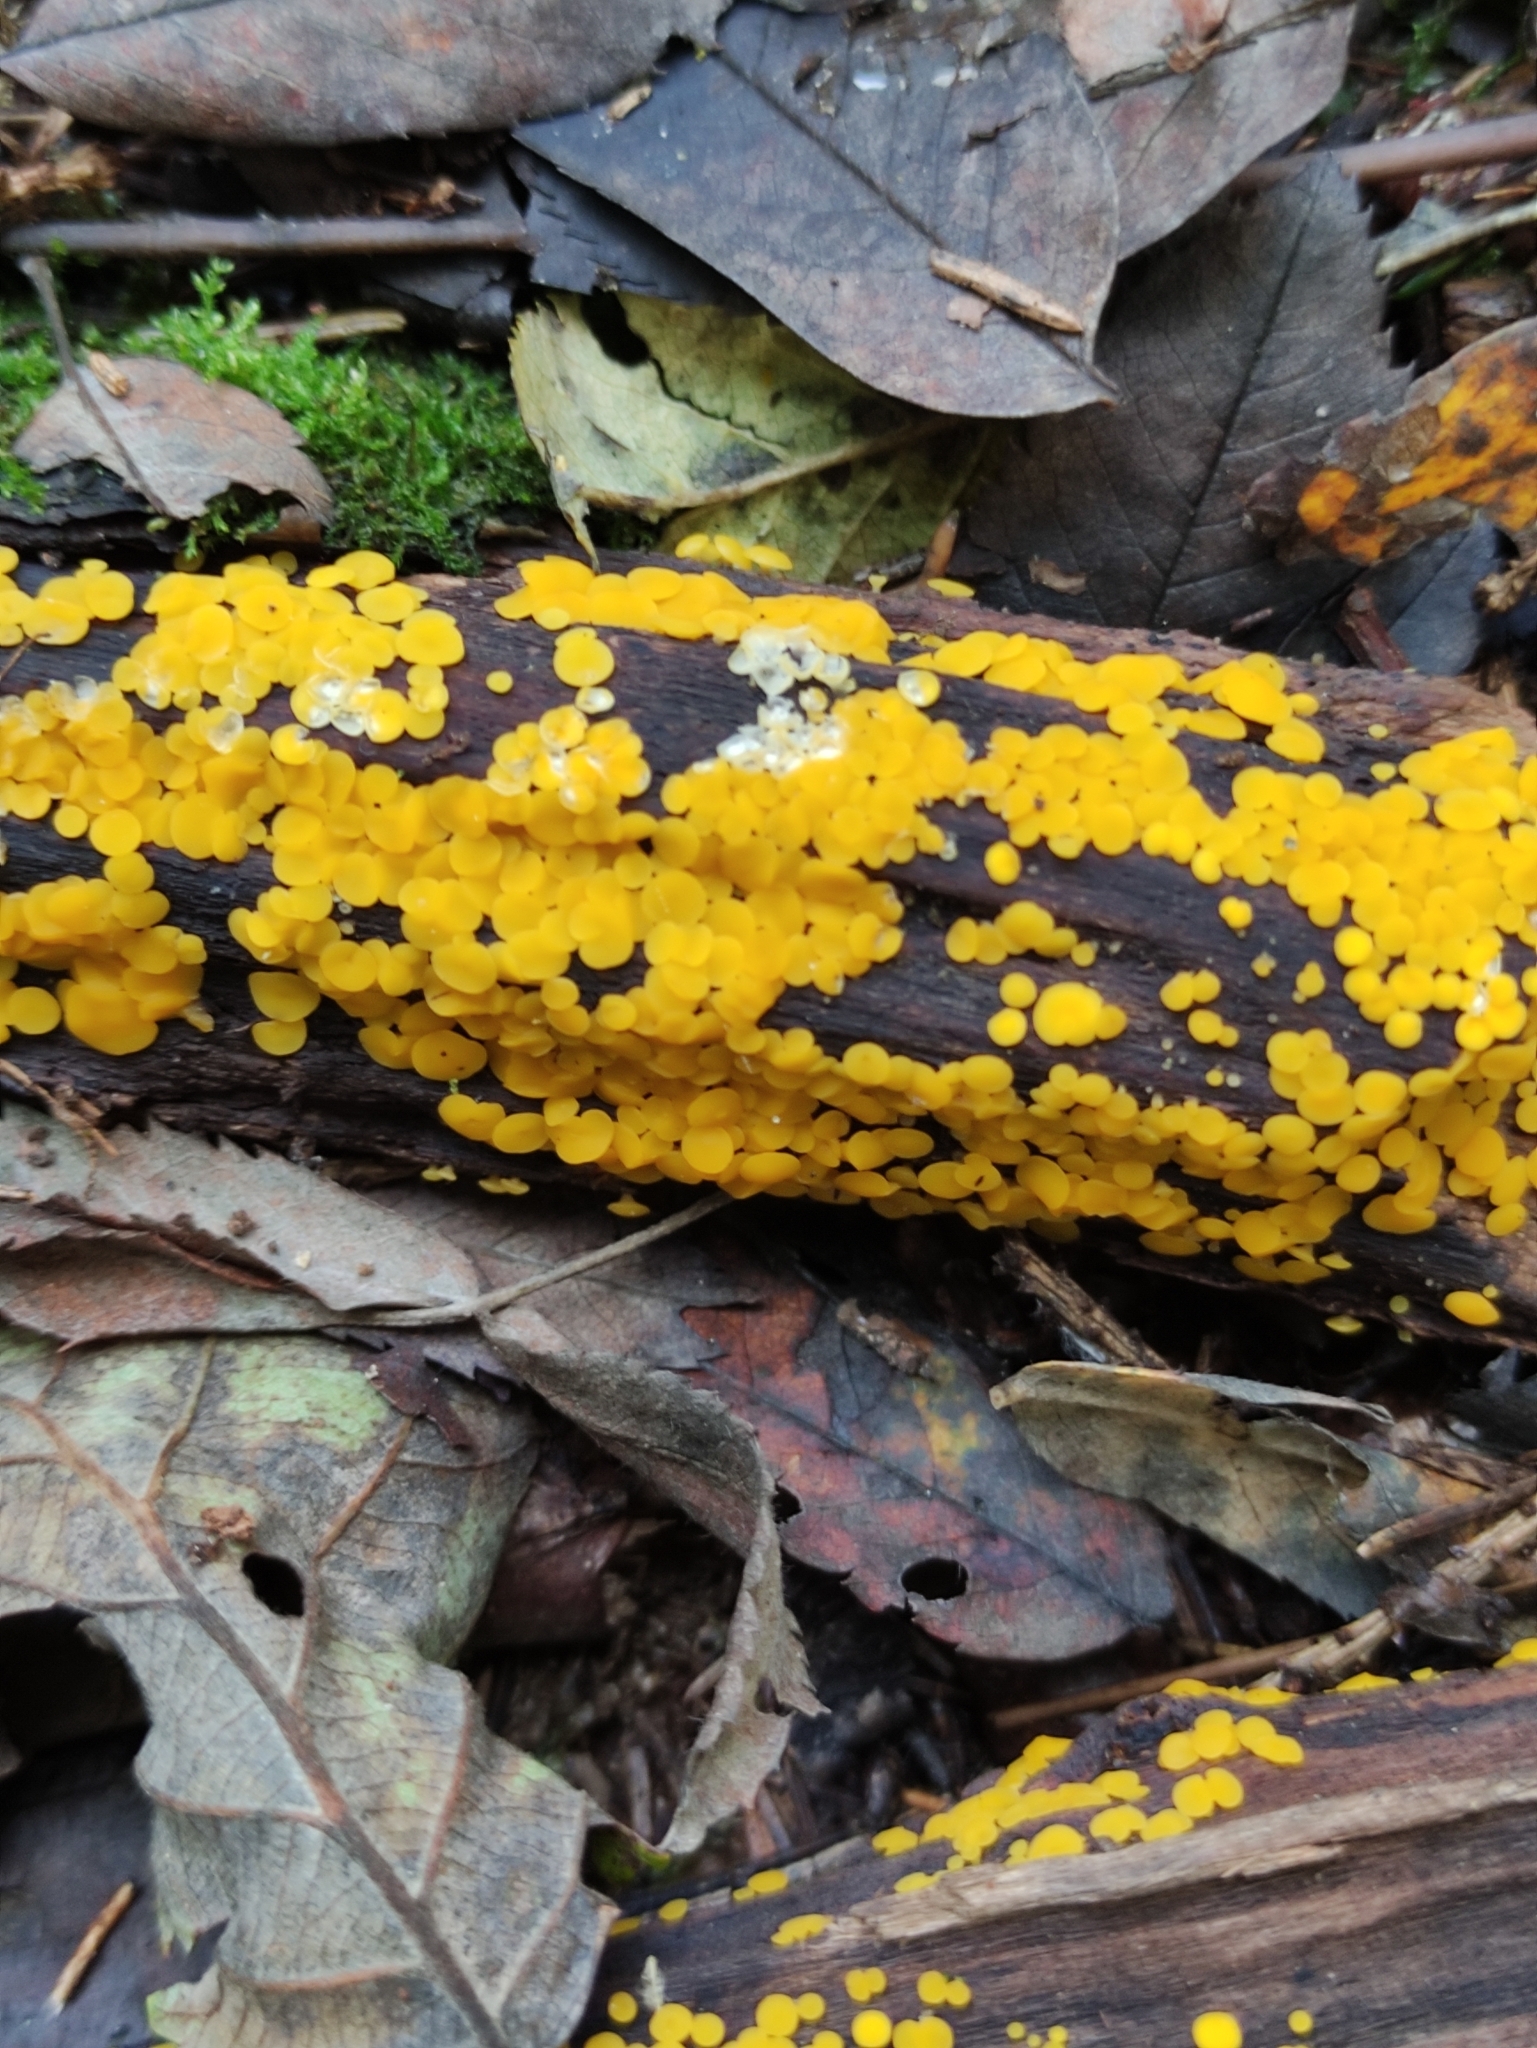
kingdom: Fungi
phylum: Ascomycota
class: Leotiomycetes
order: Helotiales
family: Pezizellaceae
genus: Calycina
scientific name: Calycina citrina
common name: Yellow fairy cups
